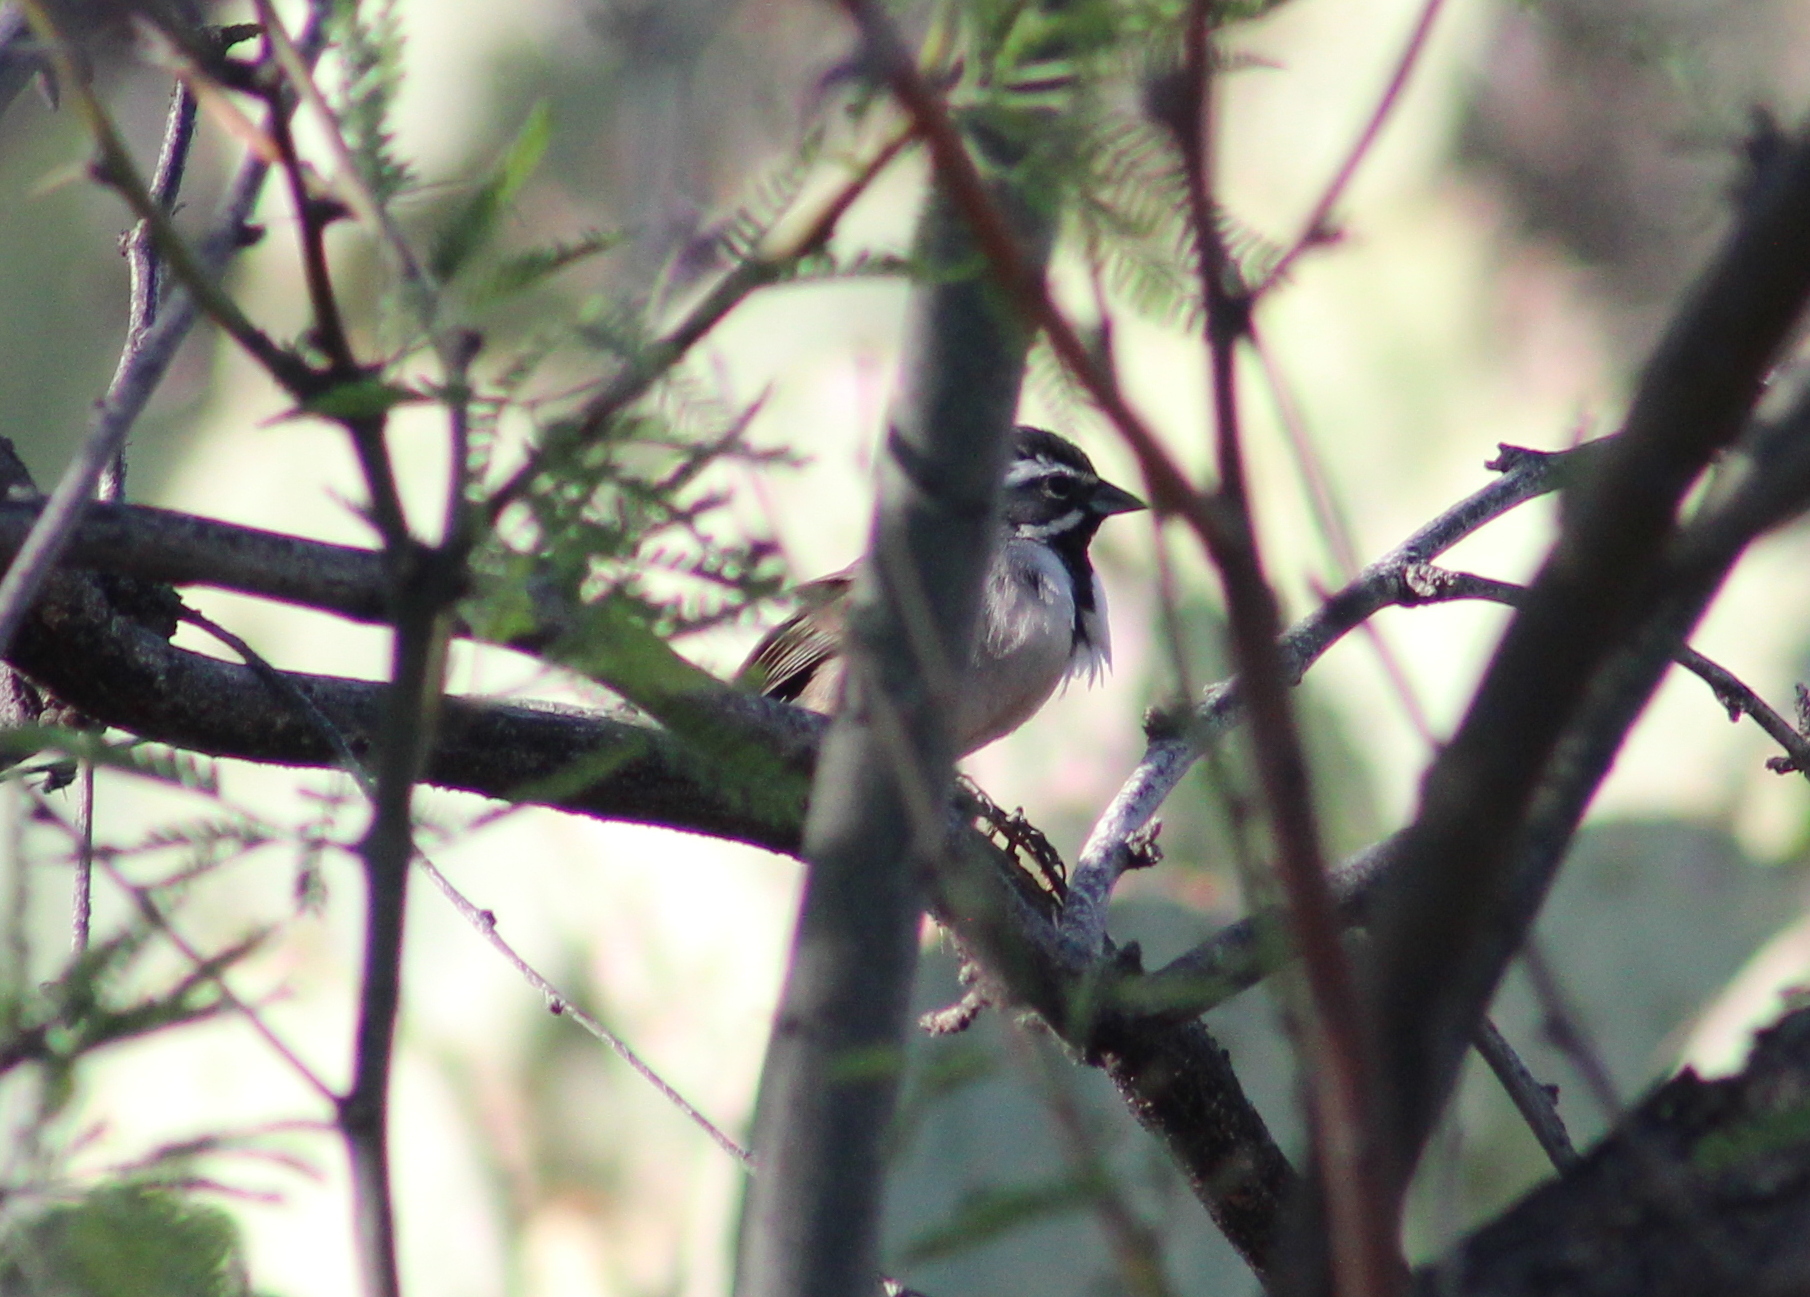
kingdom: Animalia
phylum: Chordata
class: Aves
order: Passeriformes
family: Passerellidae
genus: Amphispiza
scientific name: Amphispiza bilineata
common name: Black-throated sparrow
